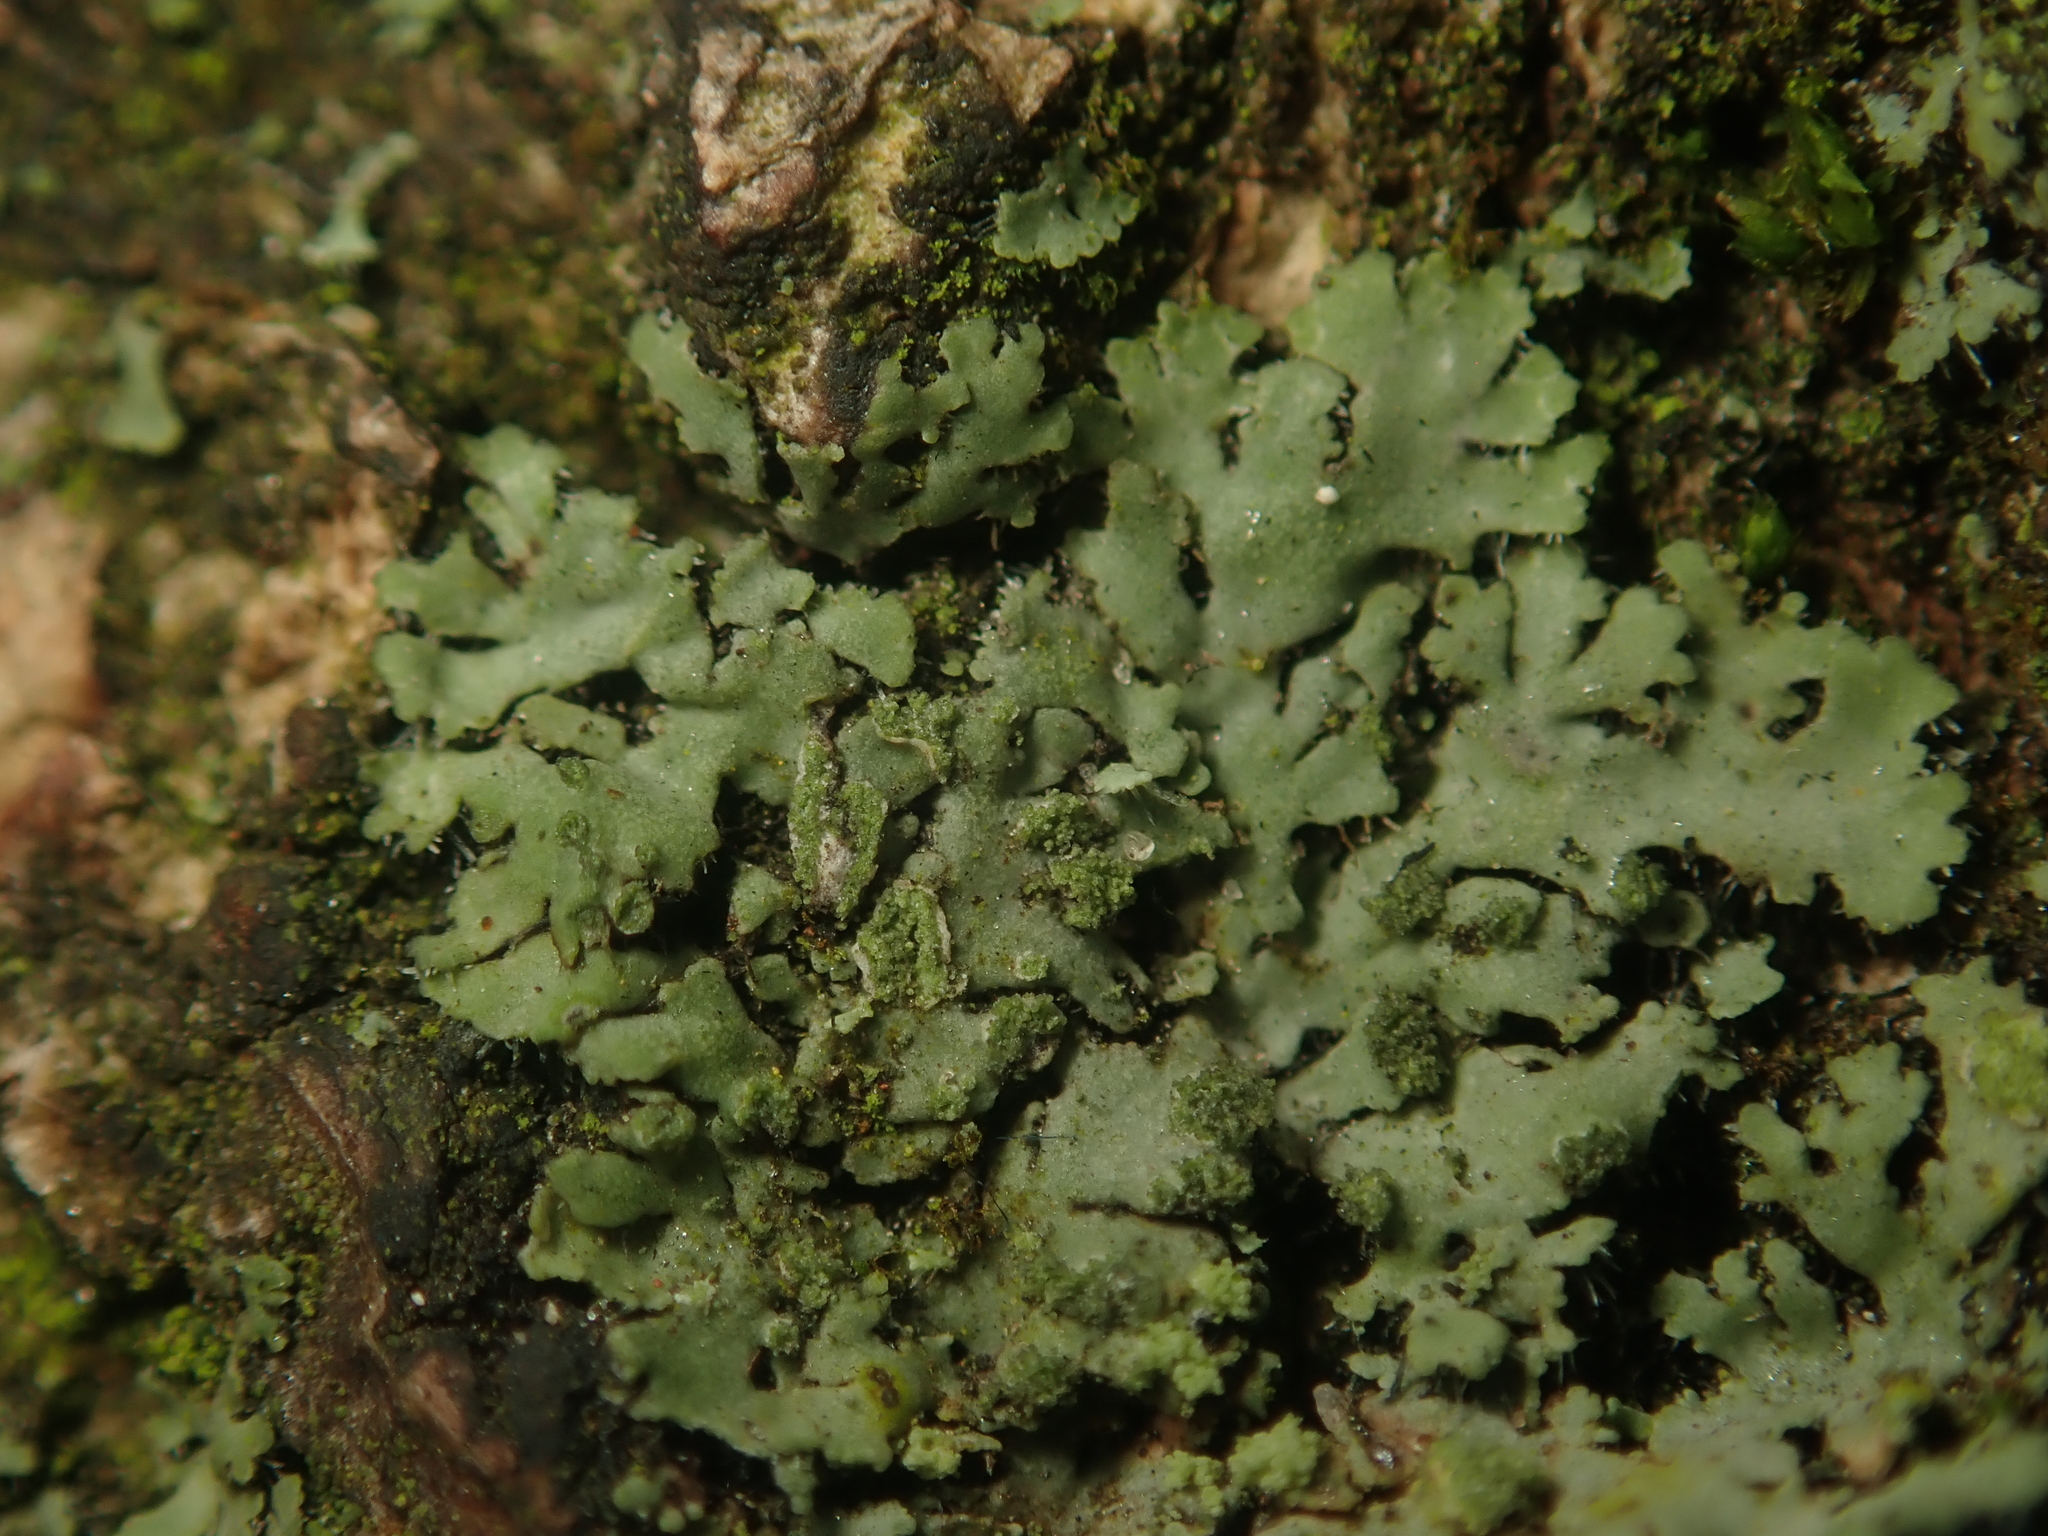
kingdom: Fungi
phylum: Ascomycota
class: Lecanoromycetes
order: Caliciales
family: Physciaceae
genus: Phaeophyscia
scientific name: Phaeophyscia orbicularis
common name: Mealy shadow lichen
